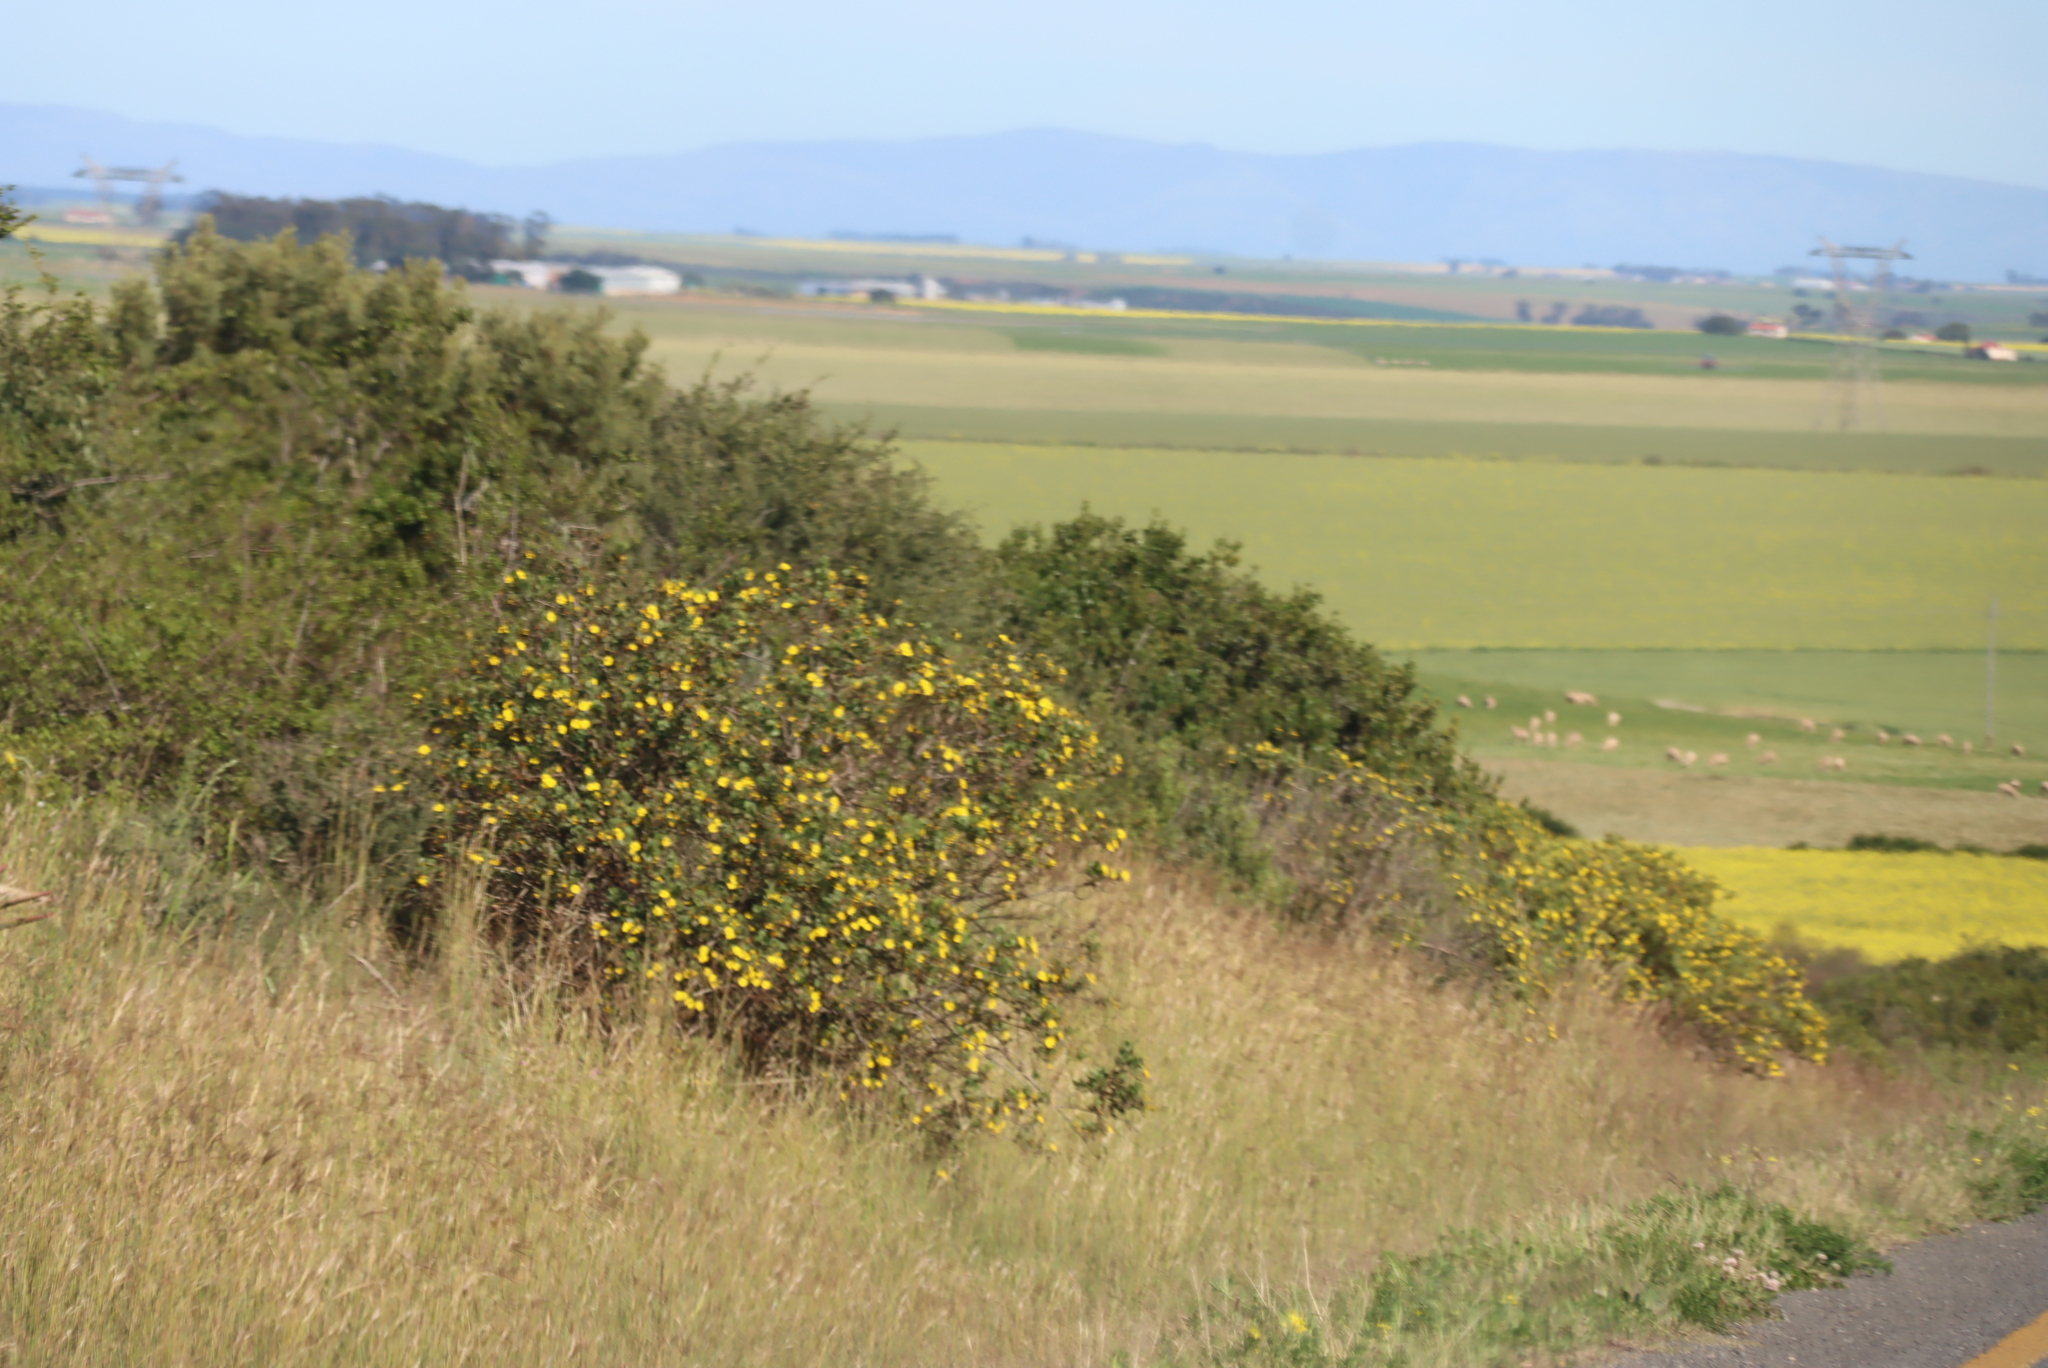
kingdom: Plantae
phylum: Tracheophyta
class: Magnoliopsida
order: Asterales
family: Asteraceae
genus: Osteospermum
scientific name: Osteospermum moniliferum
